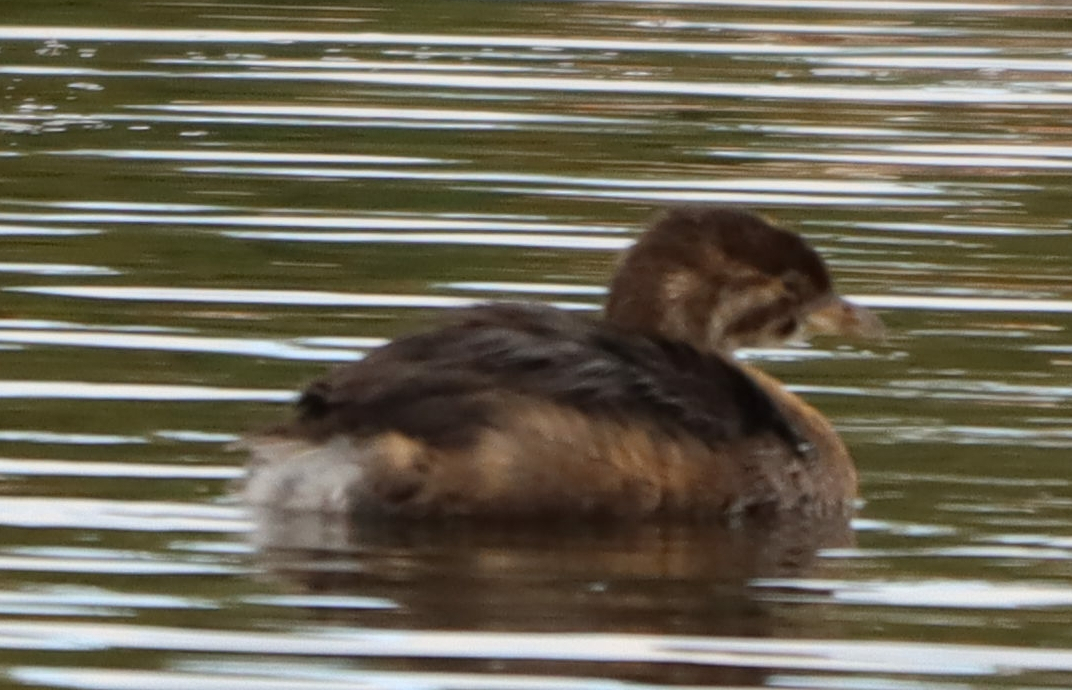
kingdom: Animalia
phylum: Chordata
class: Aves
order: Podicipediformes
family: Podicipedidae
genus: Podilymbus
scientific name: Podilymbus podiceps
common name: Pied-billed grebe
